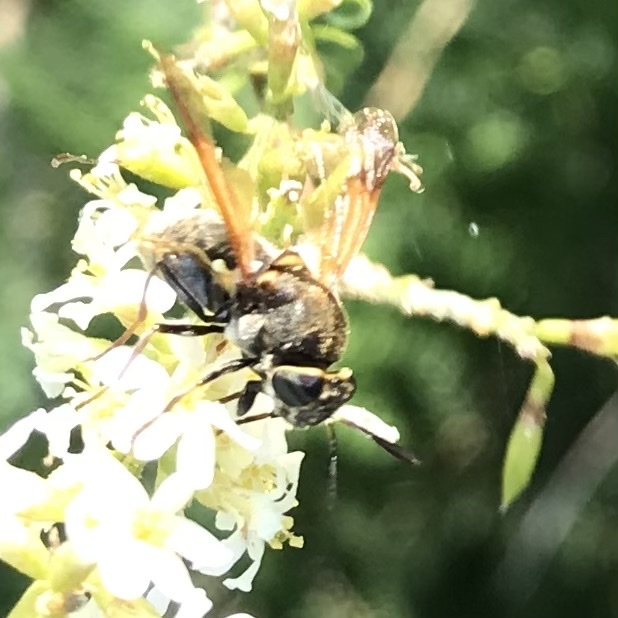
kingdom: Animalia
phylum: Arthropoda
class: Insecta
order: Diptera
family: Stratiomyidae
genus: Hoplitimyia
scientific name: Hoplitimyia mutabilis
